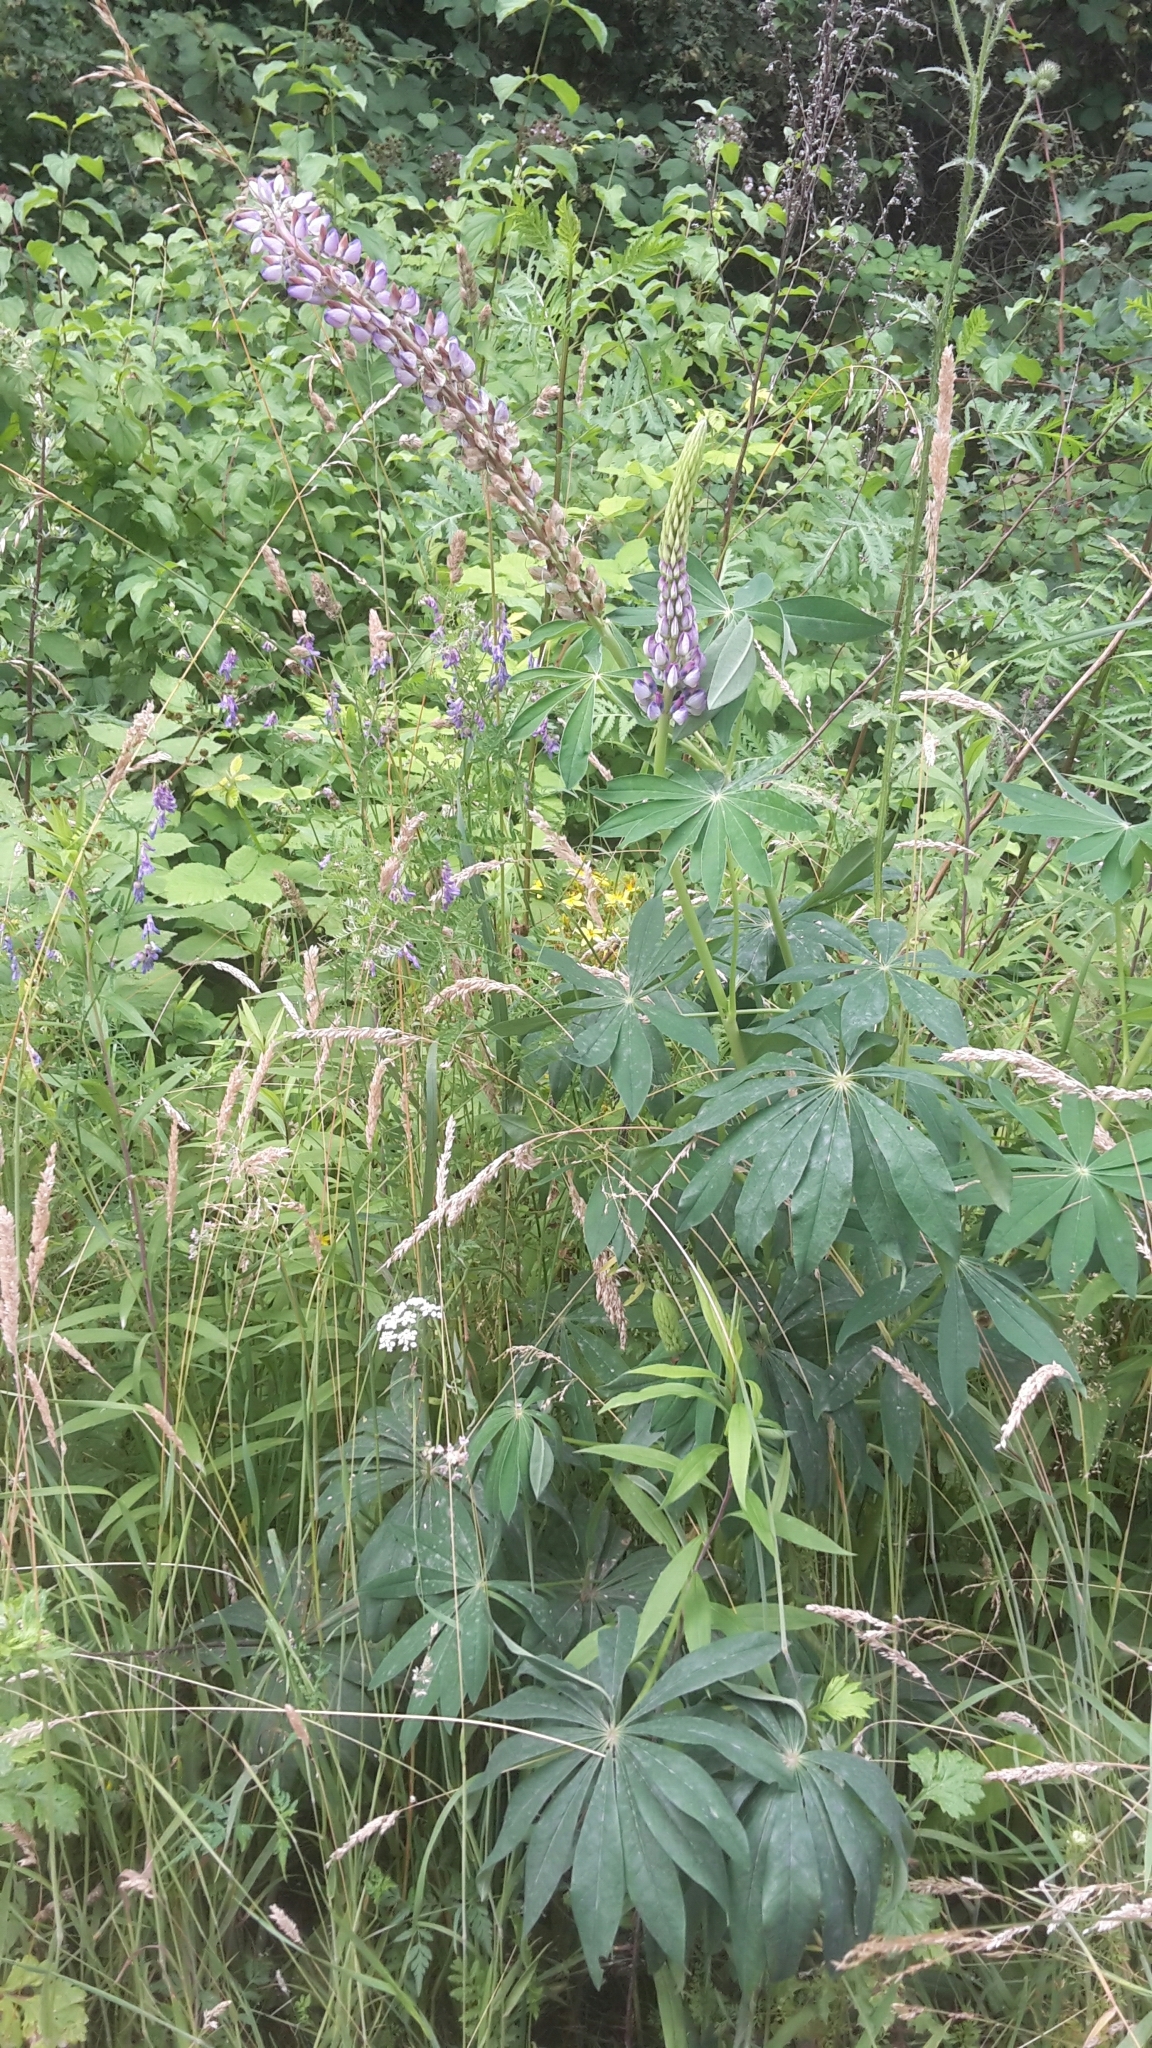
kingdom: Plantae
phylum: Tracheophyta
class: Magnoliopsida
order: Fabales
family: Fabaceae
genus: Lupinus
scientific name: Lupinus polyphyllus
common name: Garden lupin
